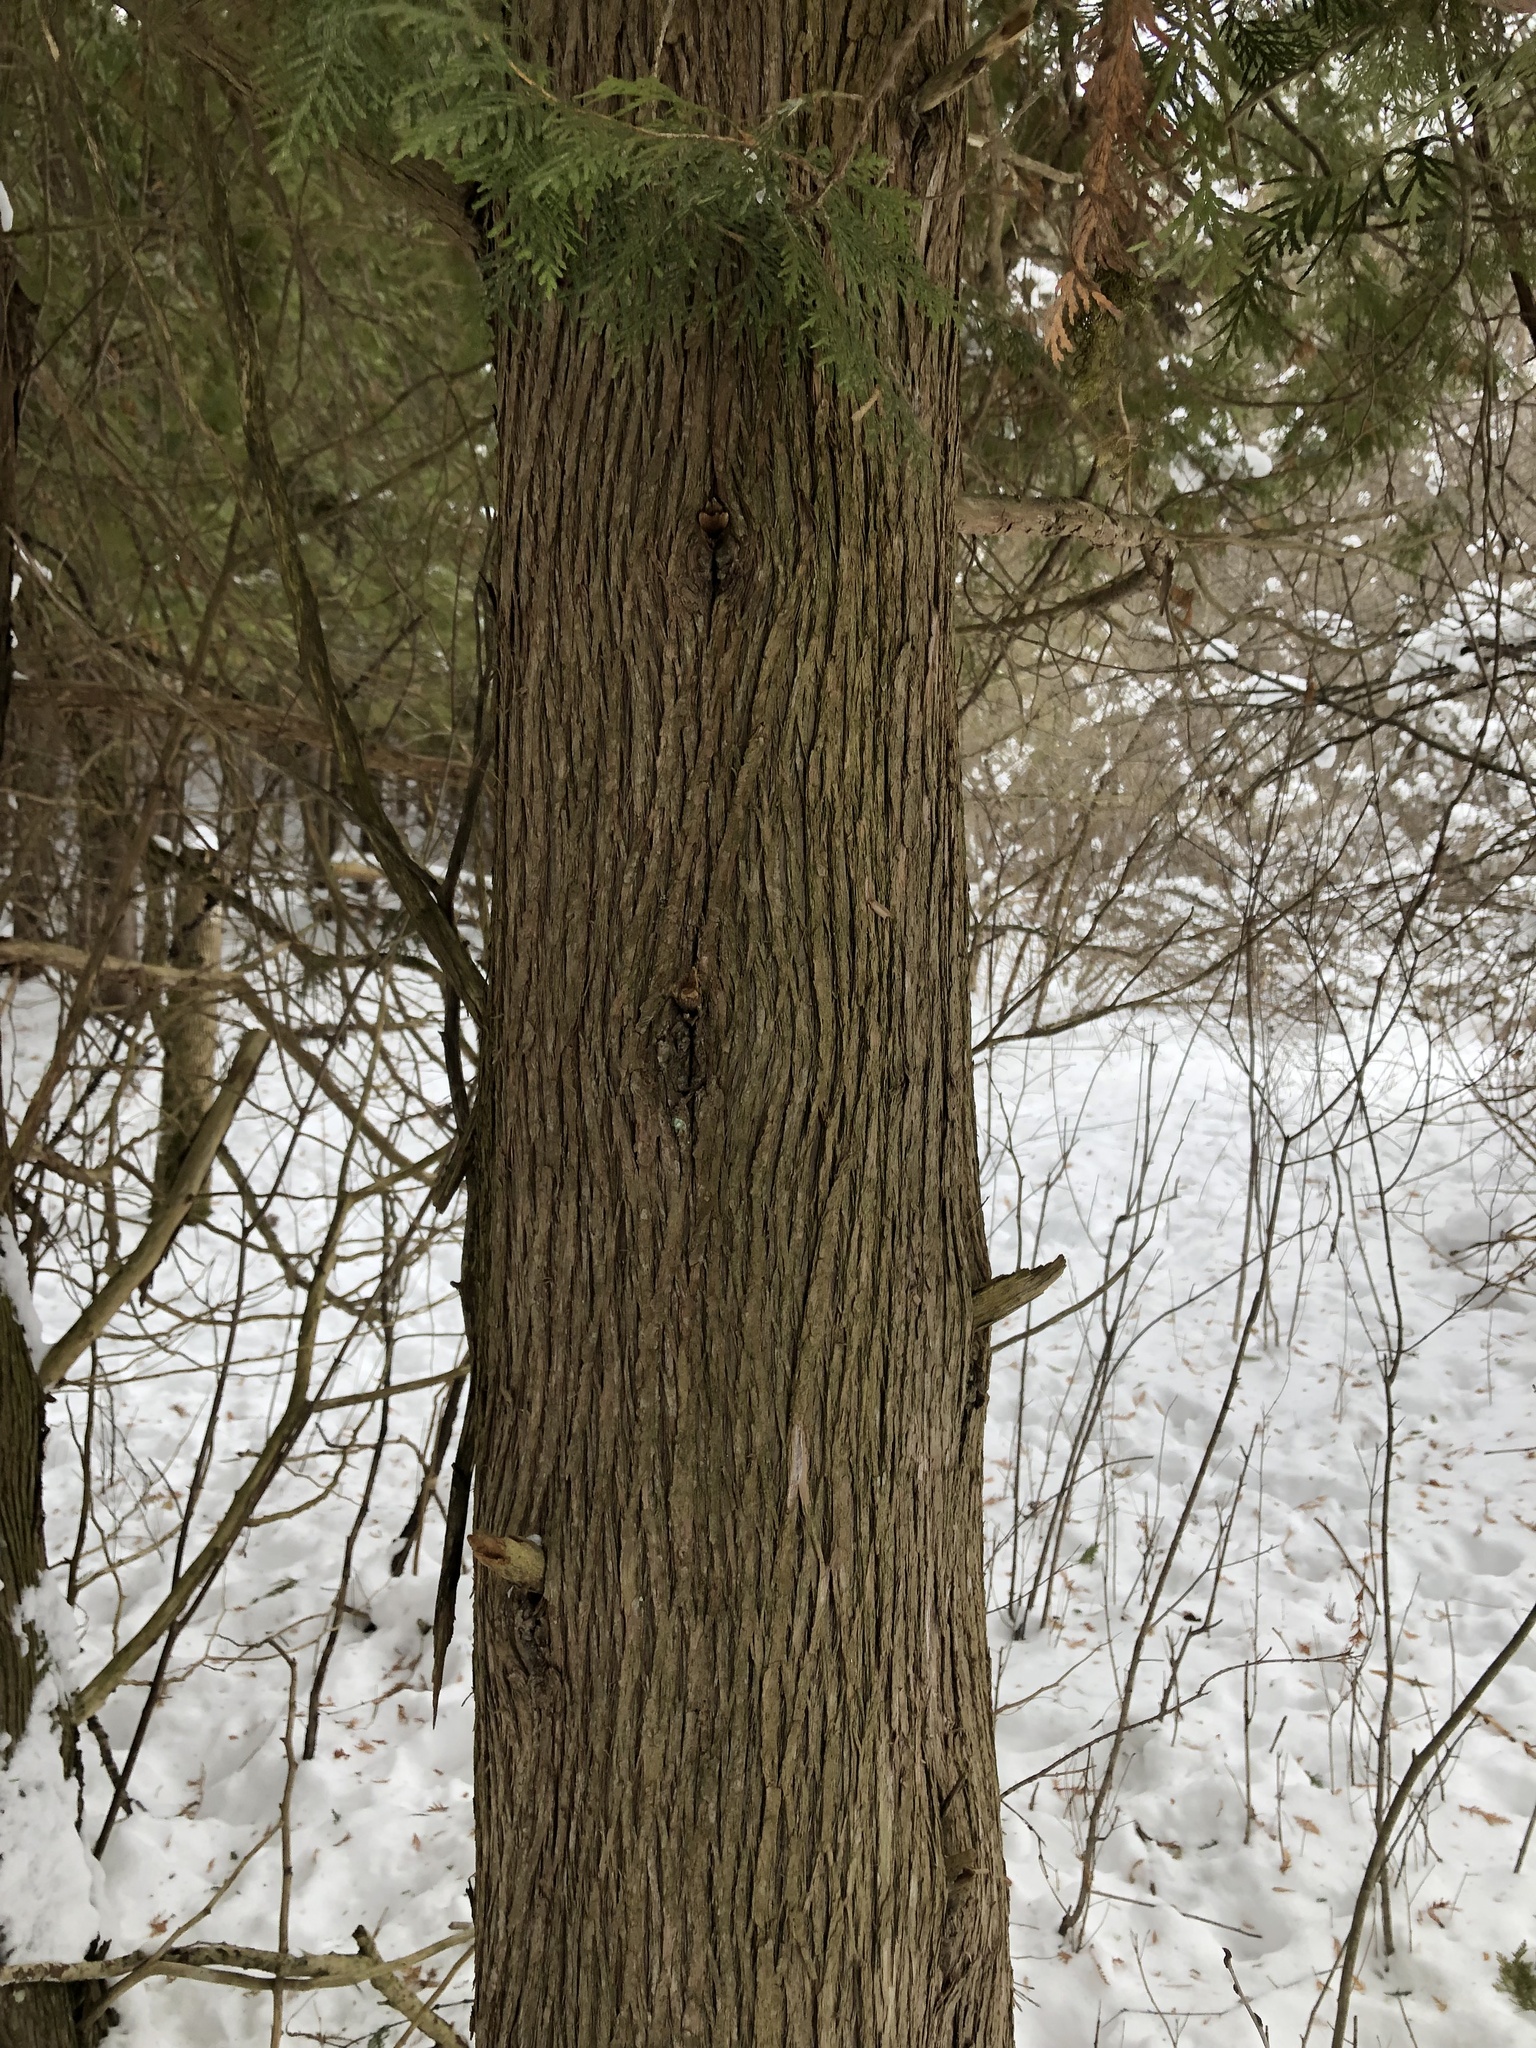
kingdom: Plantae
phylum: Tracheophyta
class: Pinopsida
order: Pinales
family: Cupressaceae
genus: Thuja
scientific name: Thuja occidentalis
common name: Northern white-cedar
